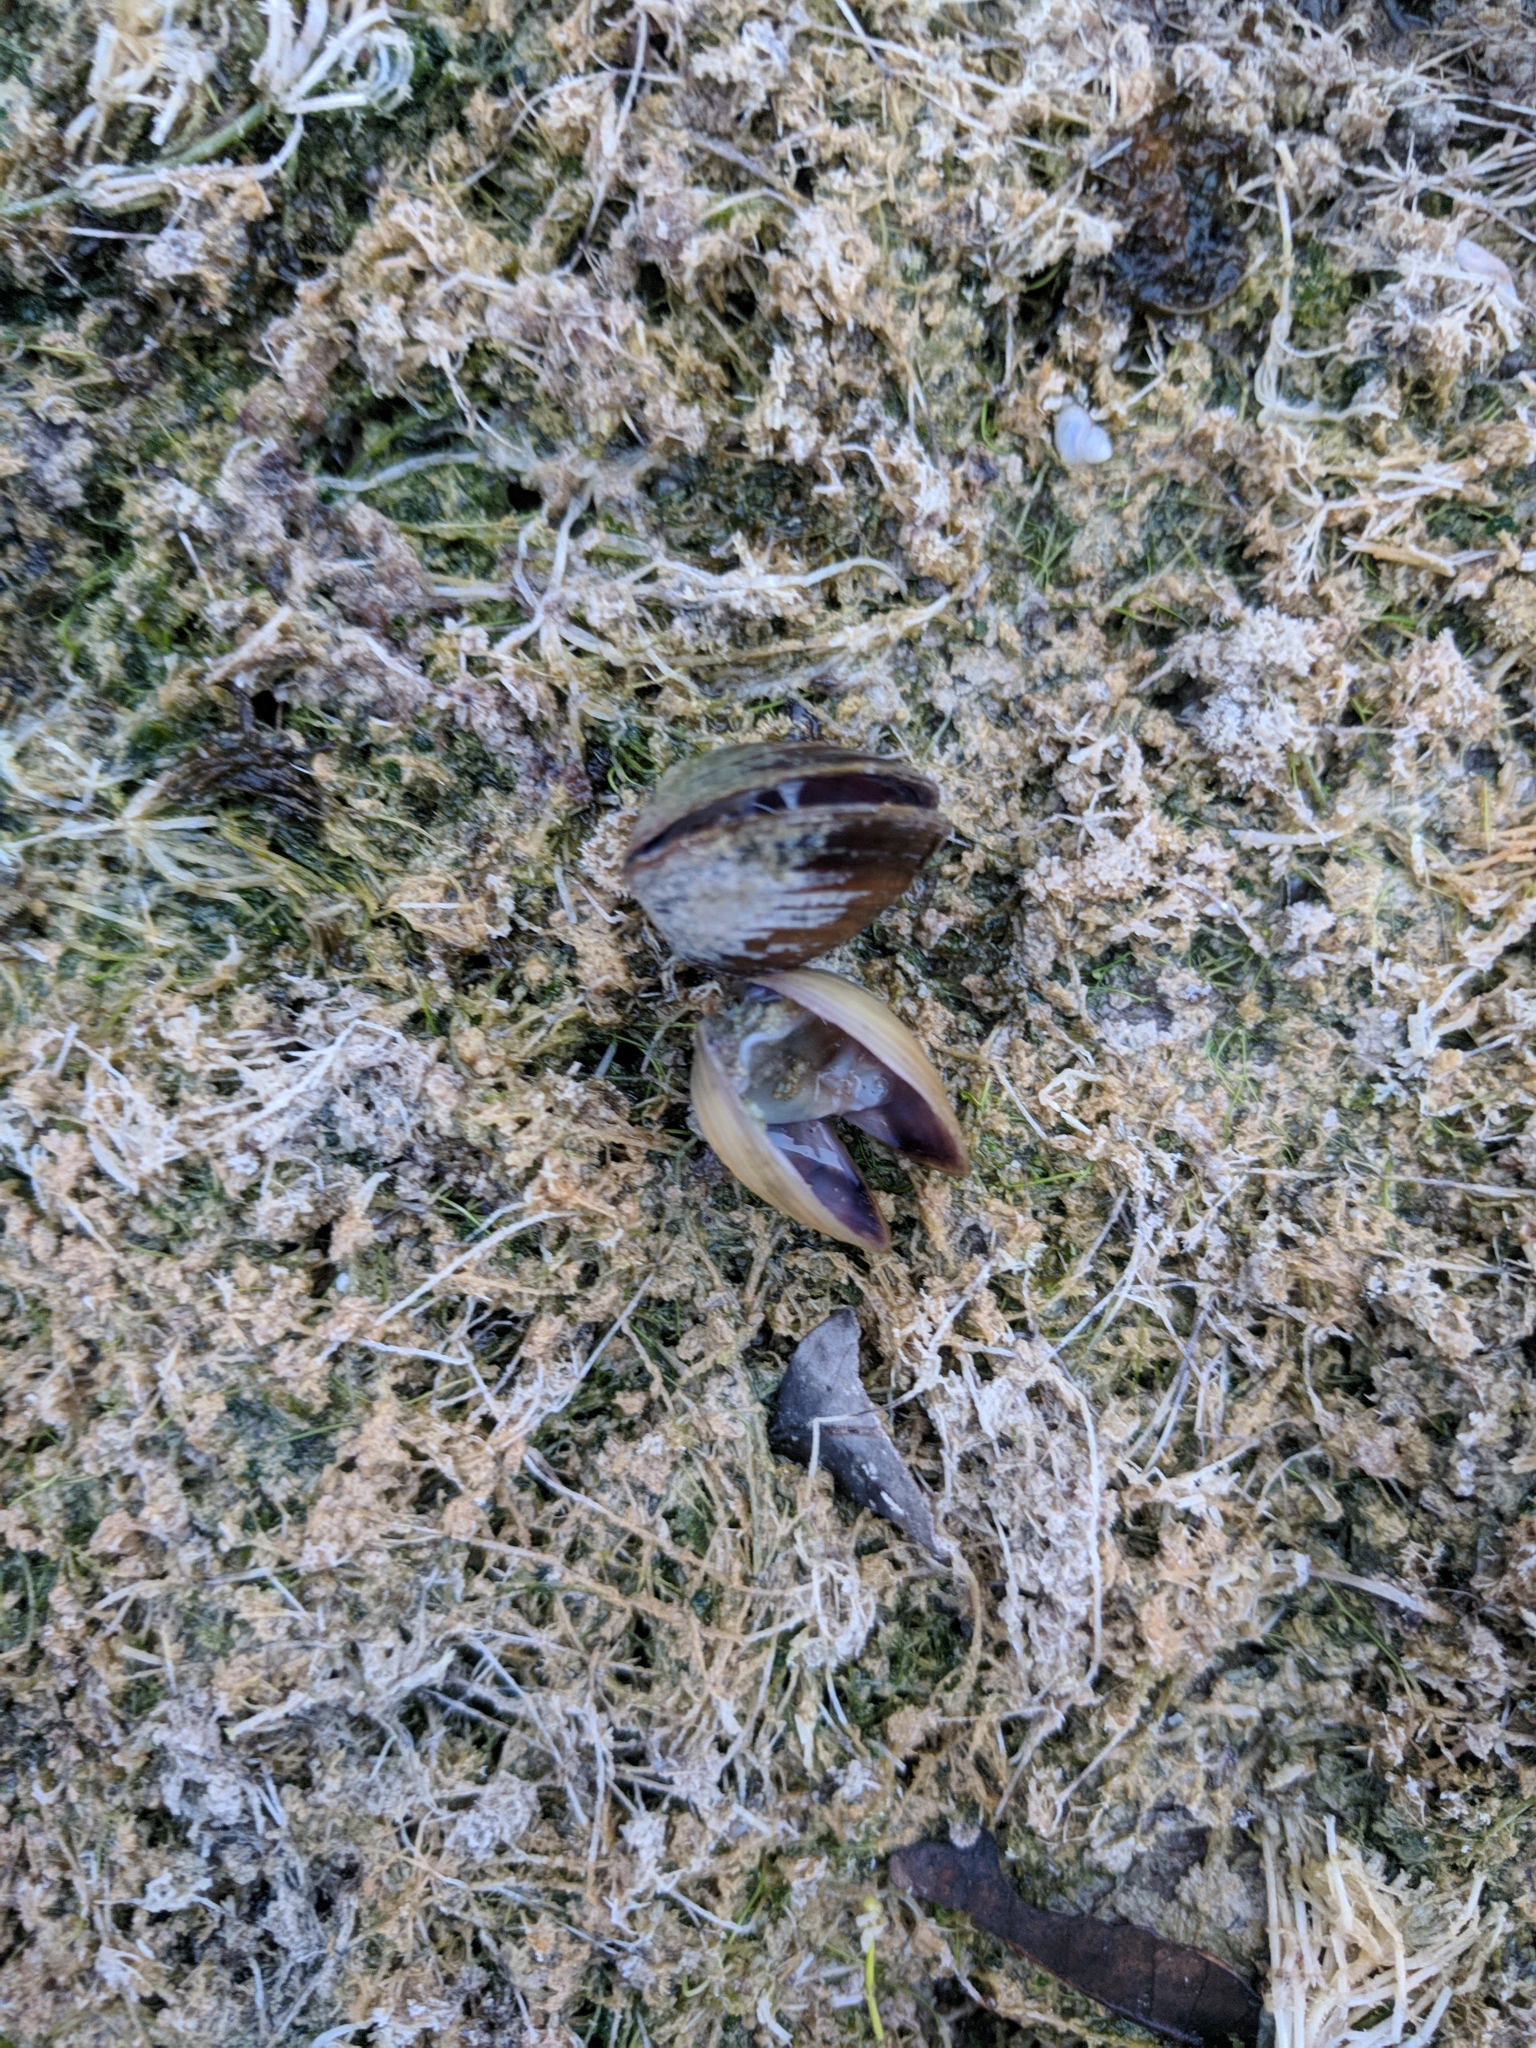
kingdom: Animalia
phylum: Mollusca
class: Bivalvia
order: Venerida
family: Cyrenidae
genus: Corbicula
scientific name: Corbicula fluminea
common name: Asian clam
